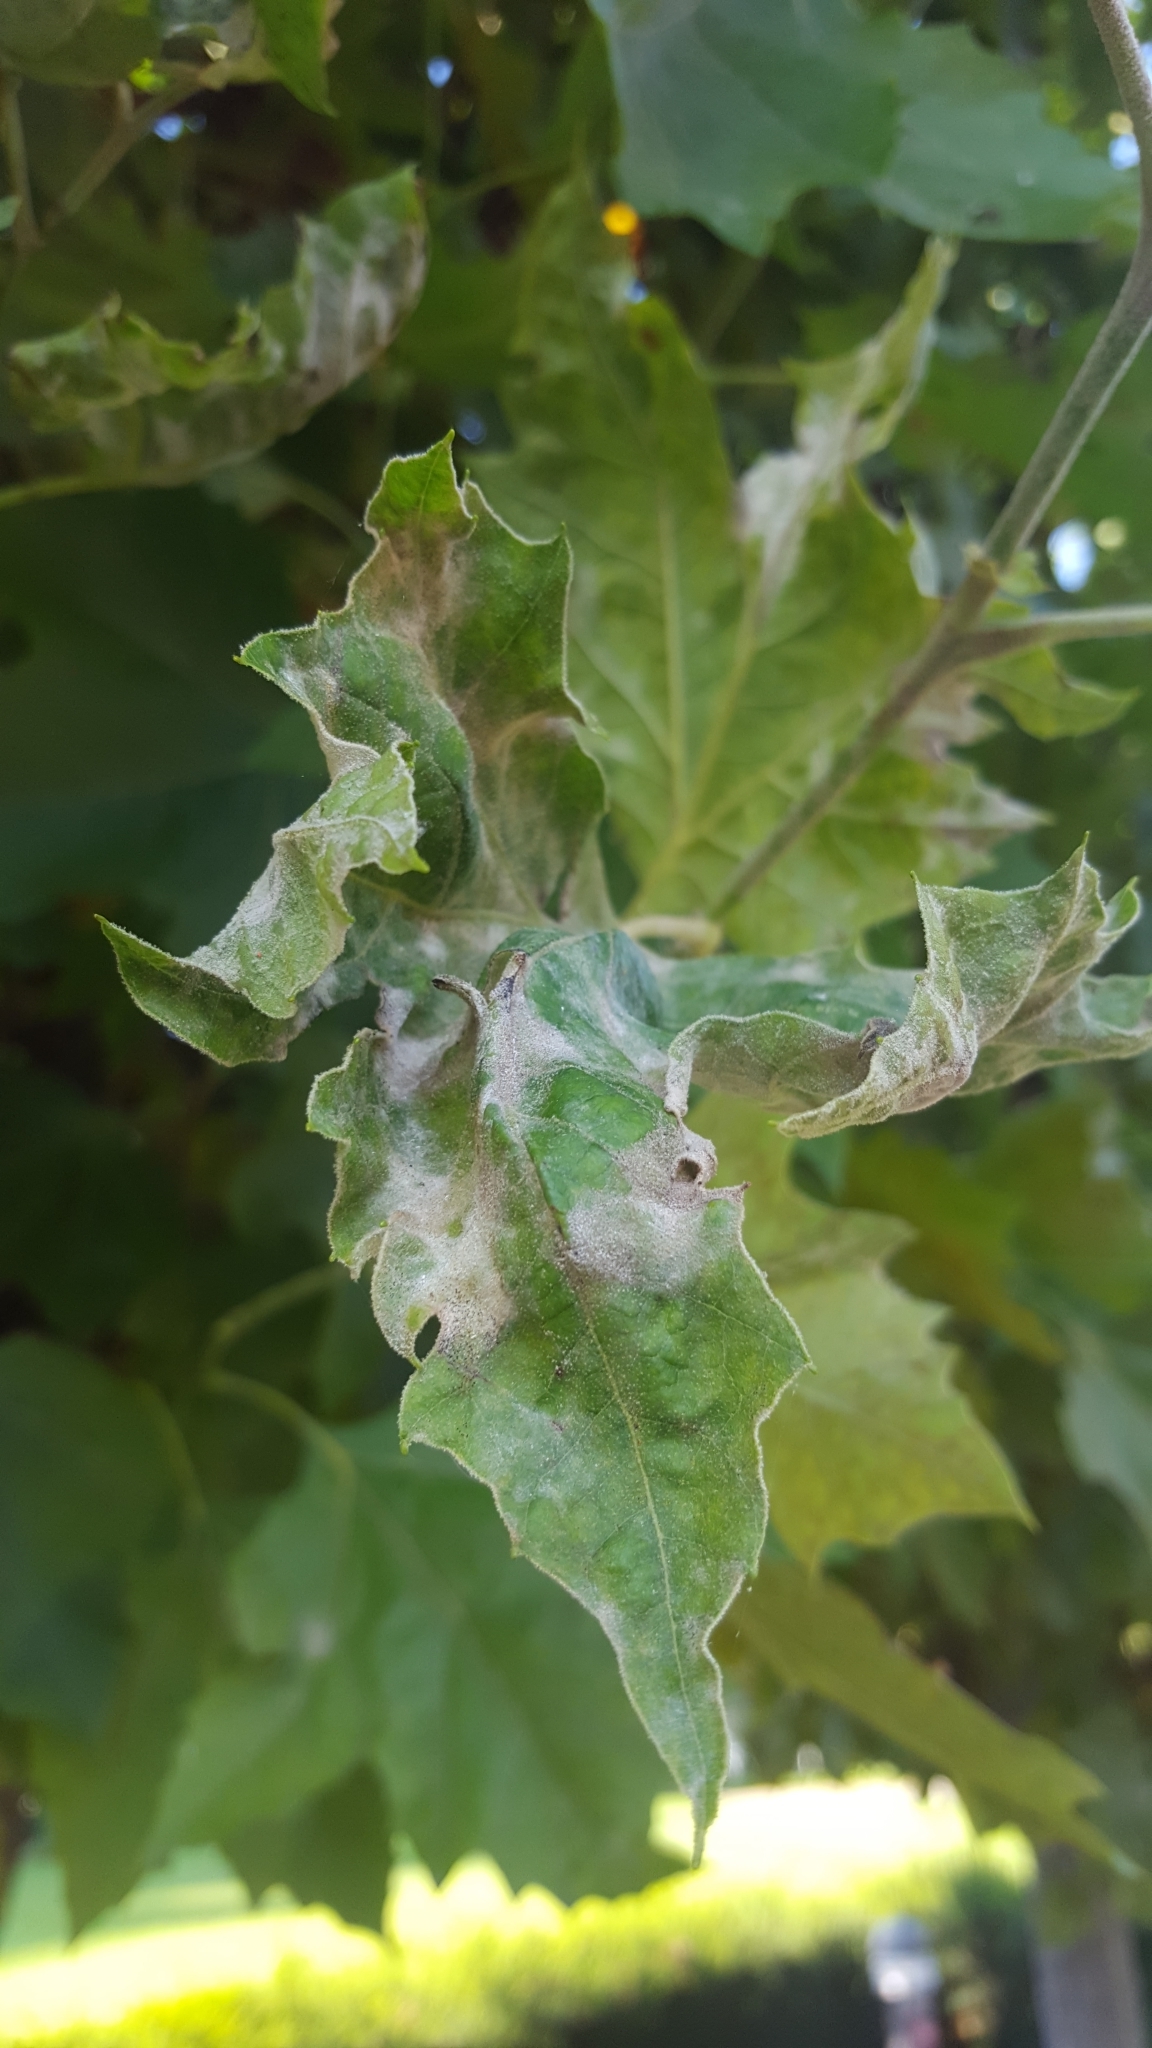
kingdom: Fungi
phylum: Ascomycota
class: Leotiomycetes
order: Helotiales
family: Erysiphaceae
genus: Erysiphe
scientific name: Erysiphe platani
